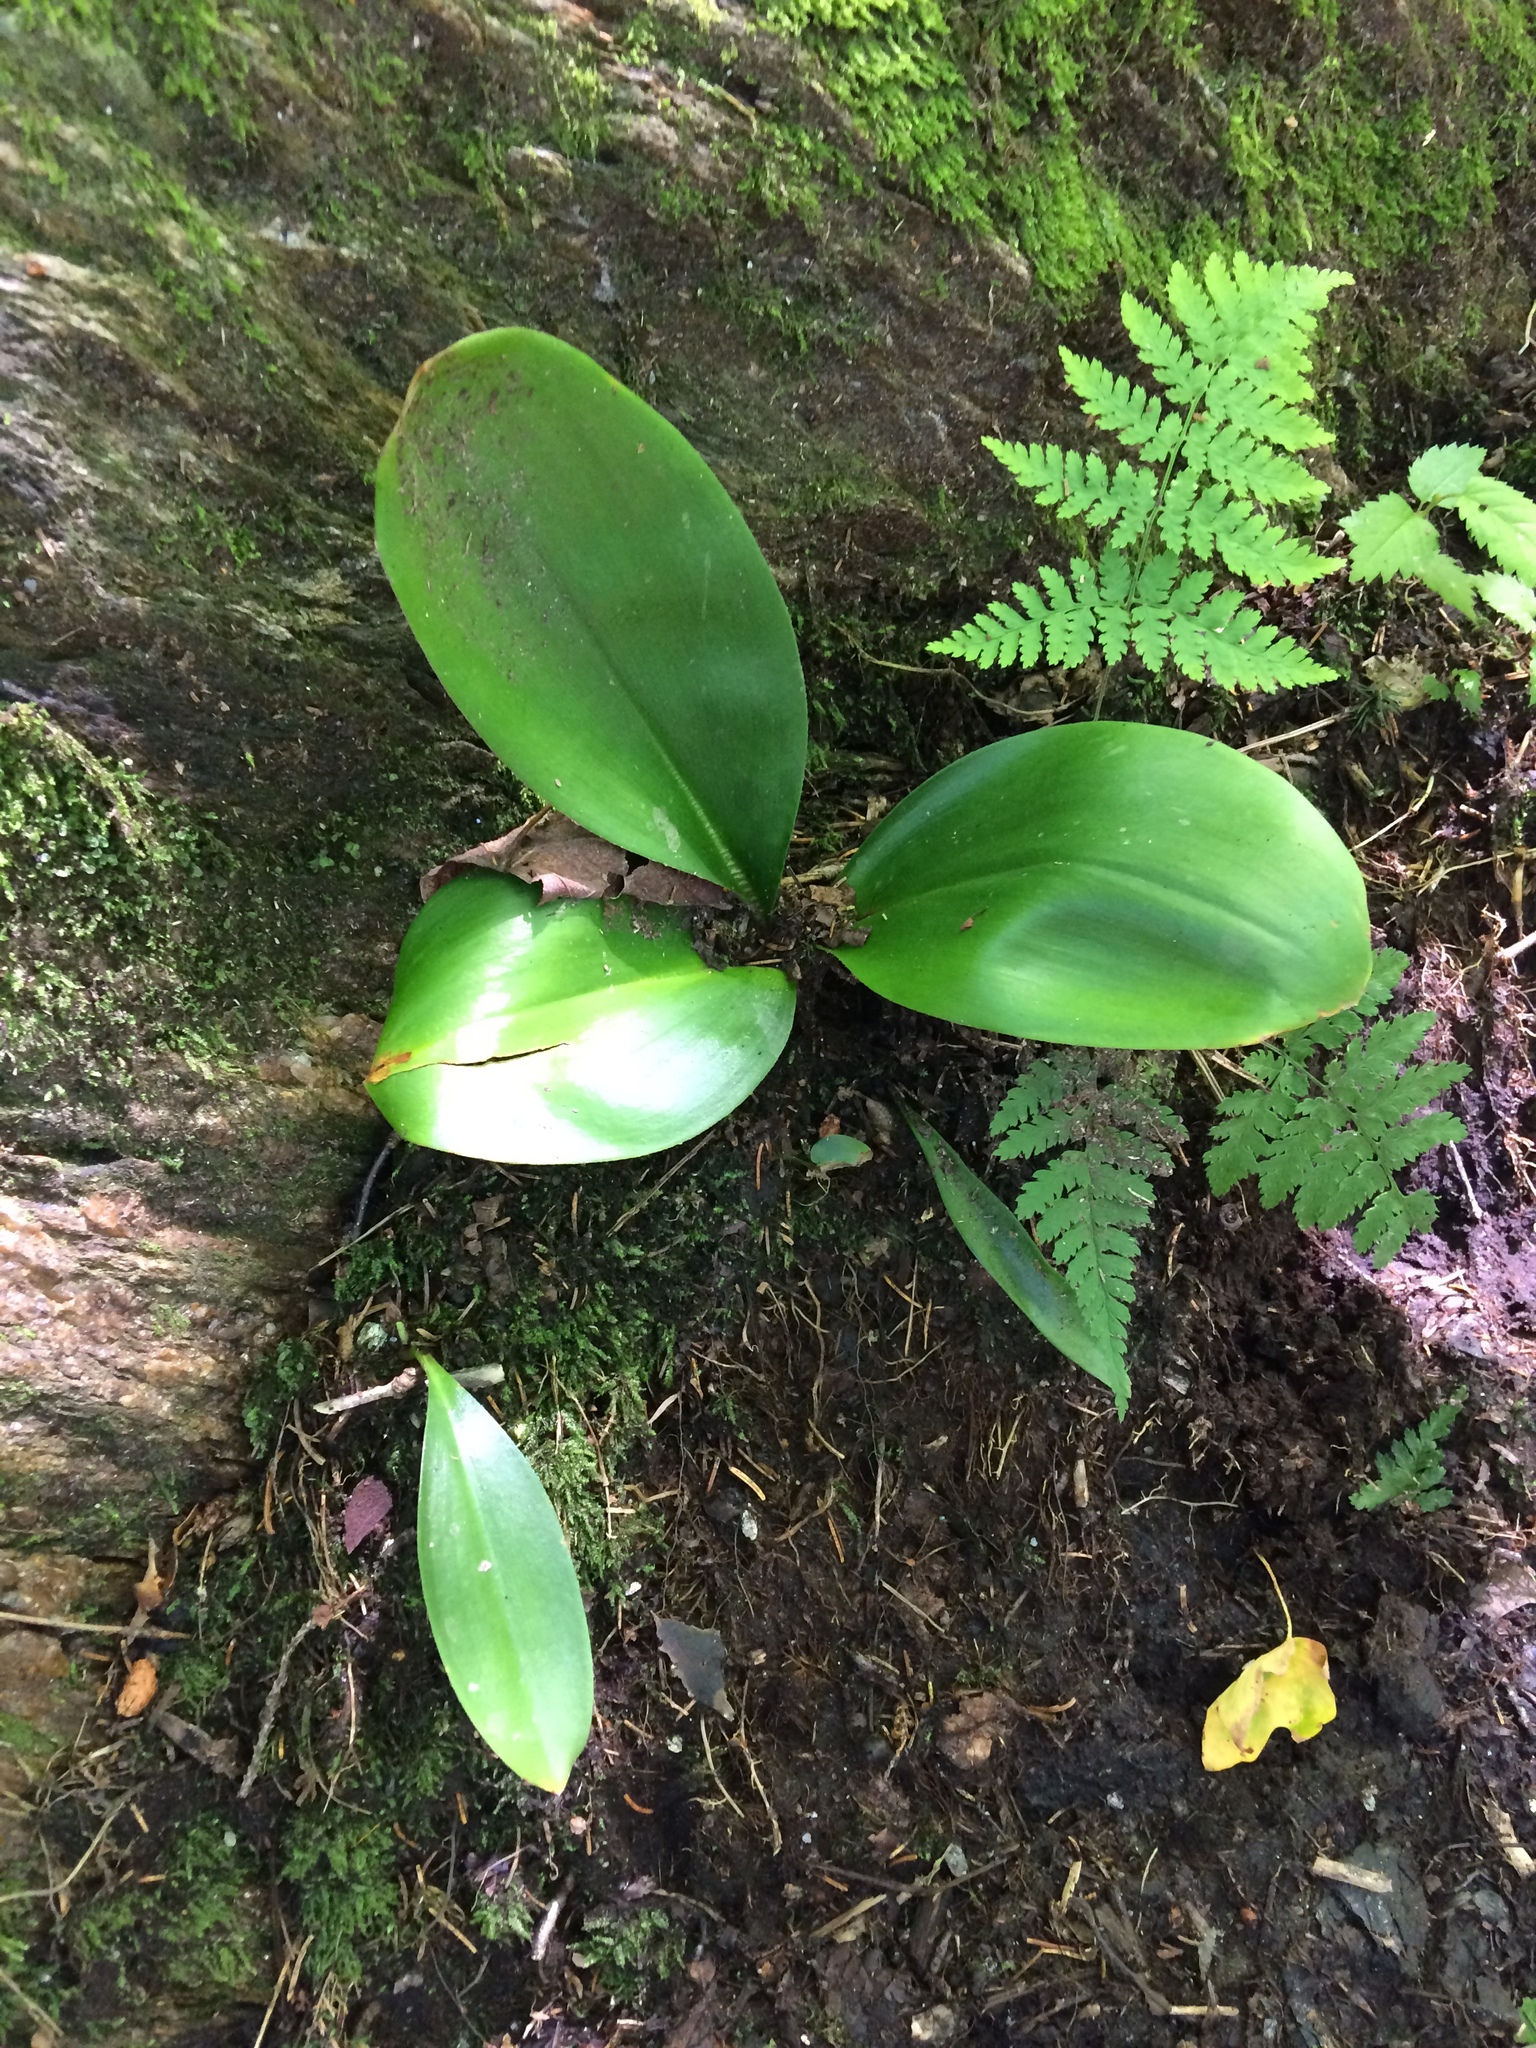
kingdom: Plantae
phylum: Tracheophyta
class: Liliopsida
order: Liliales
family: Liliaceae
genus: Clintonia
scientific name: Clintonia borealis
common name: Yellow clintonia
